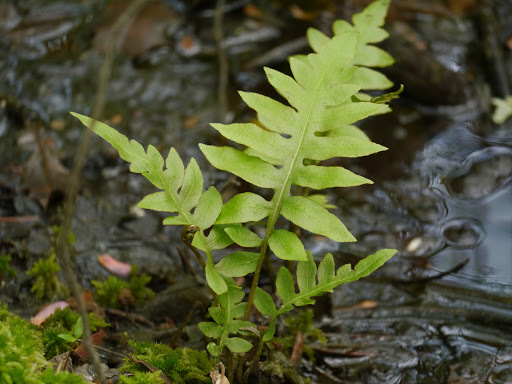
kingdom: Plantae
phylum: Tracheophyta
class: Polypodiopsida
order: Polypodiales
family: Blechnaceae
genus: Lorinseria
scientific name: Lorinseria areolata
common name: Dwarf chain fern
